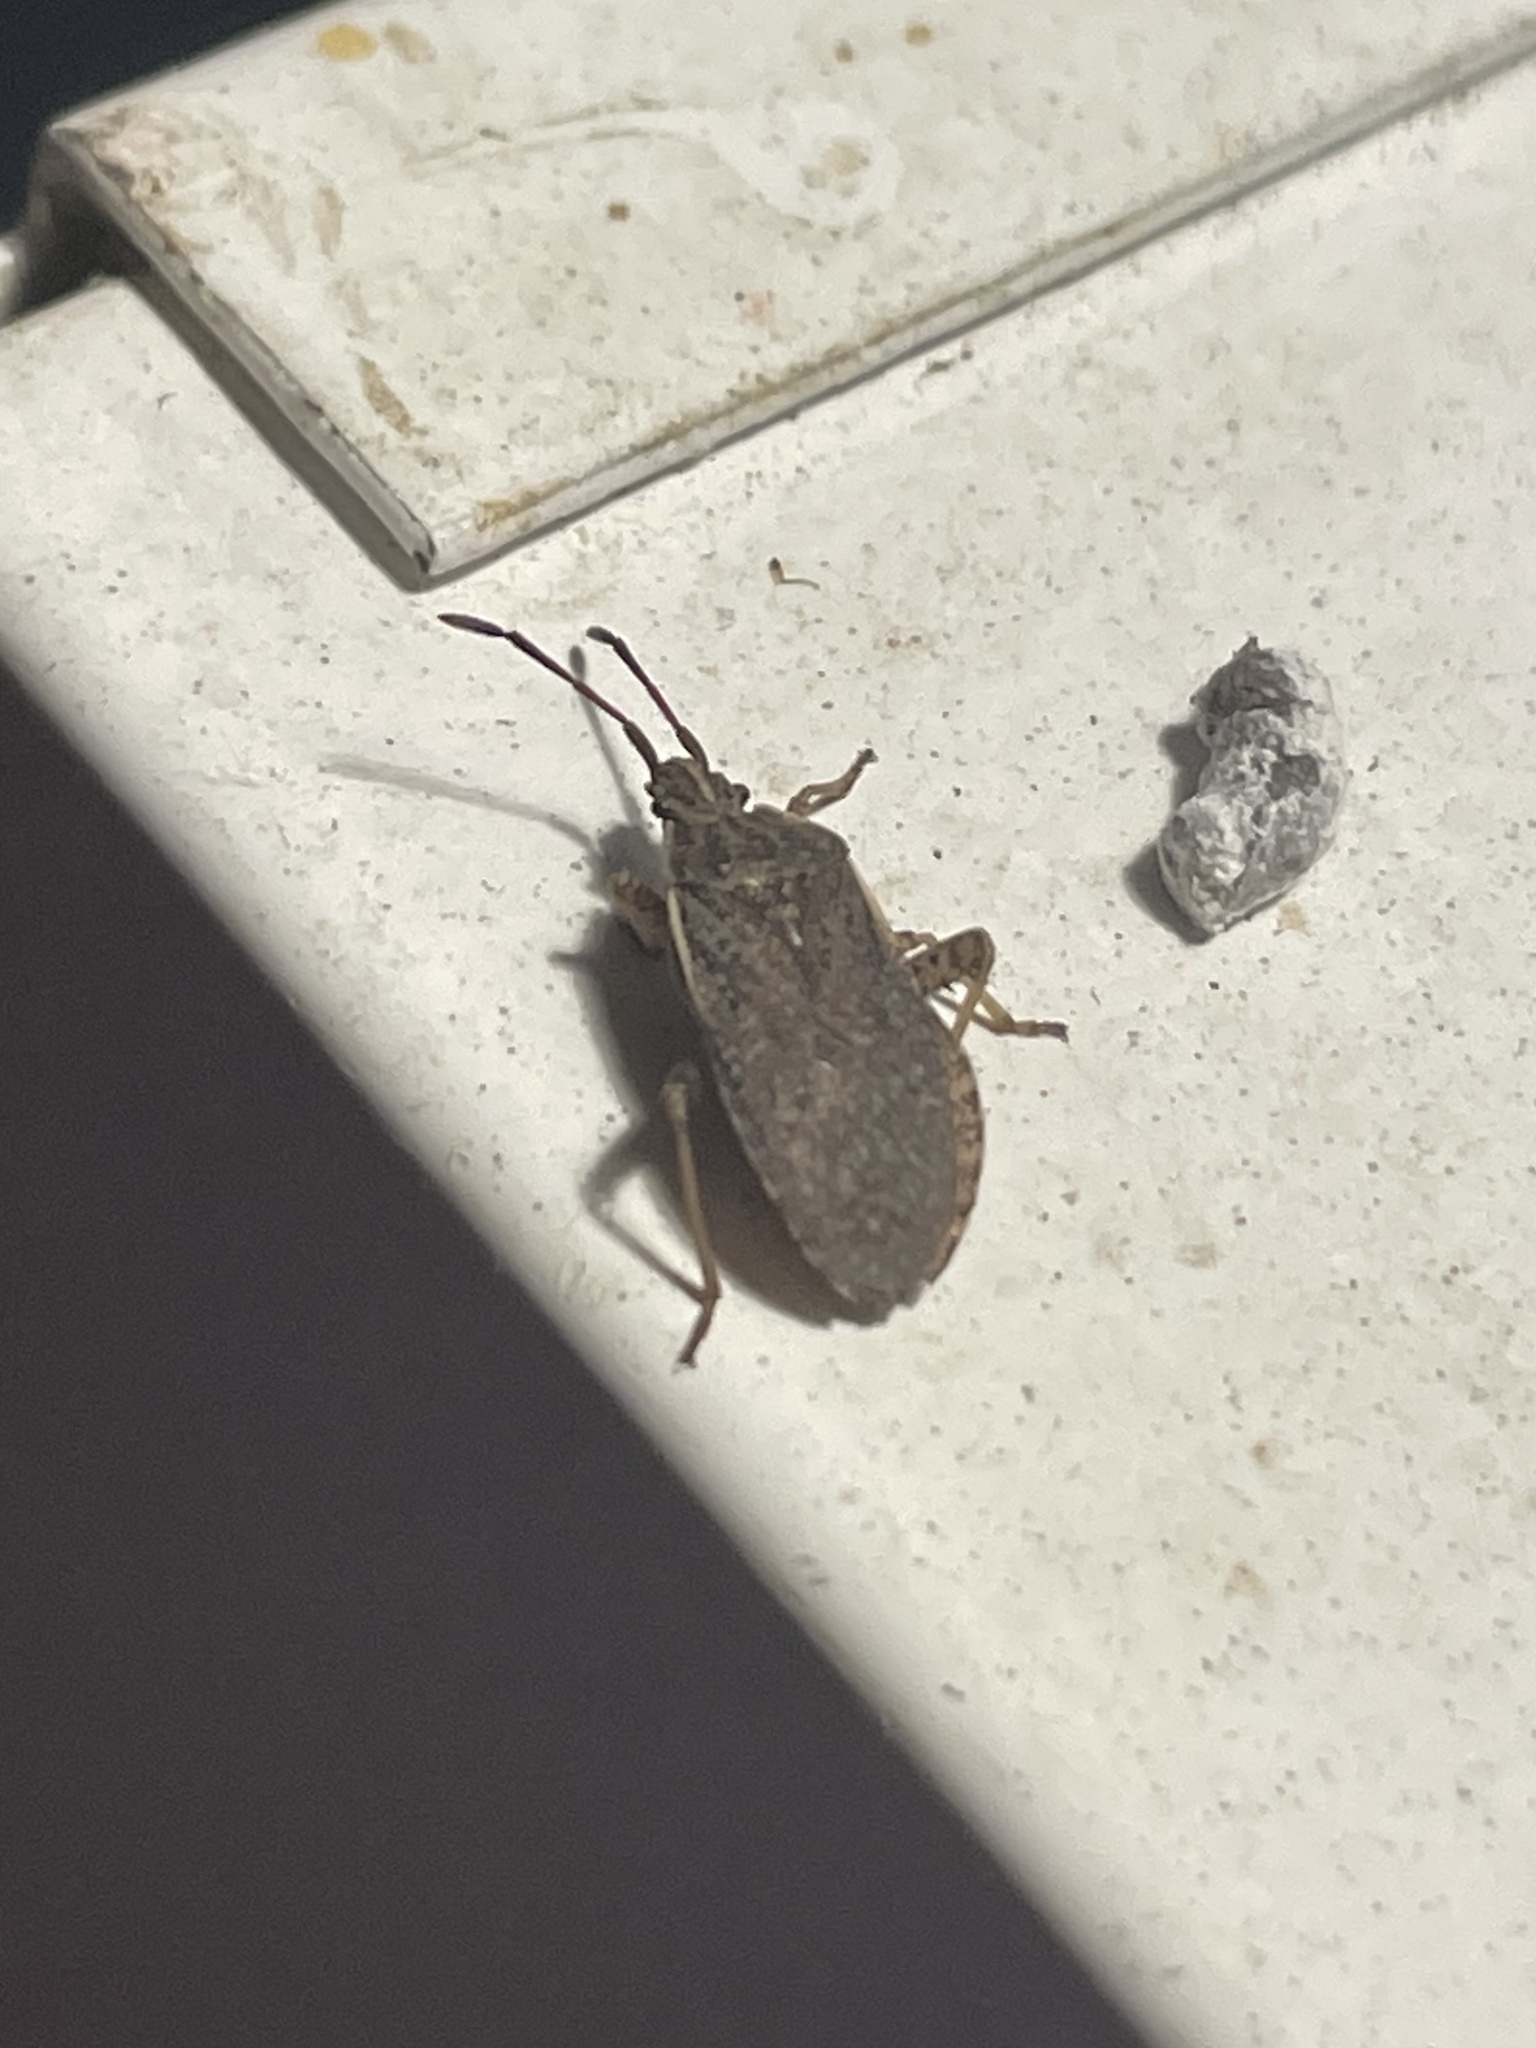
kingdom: Animalia
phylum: Arthropoda
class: Insecta
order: Hemiptera
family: Coreidae
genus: Ceraleptus
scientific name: Ceraleptus probolus
